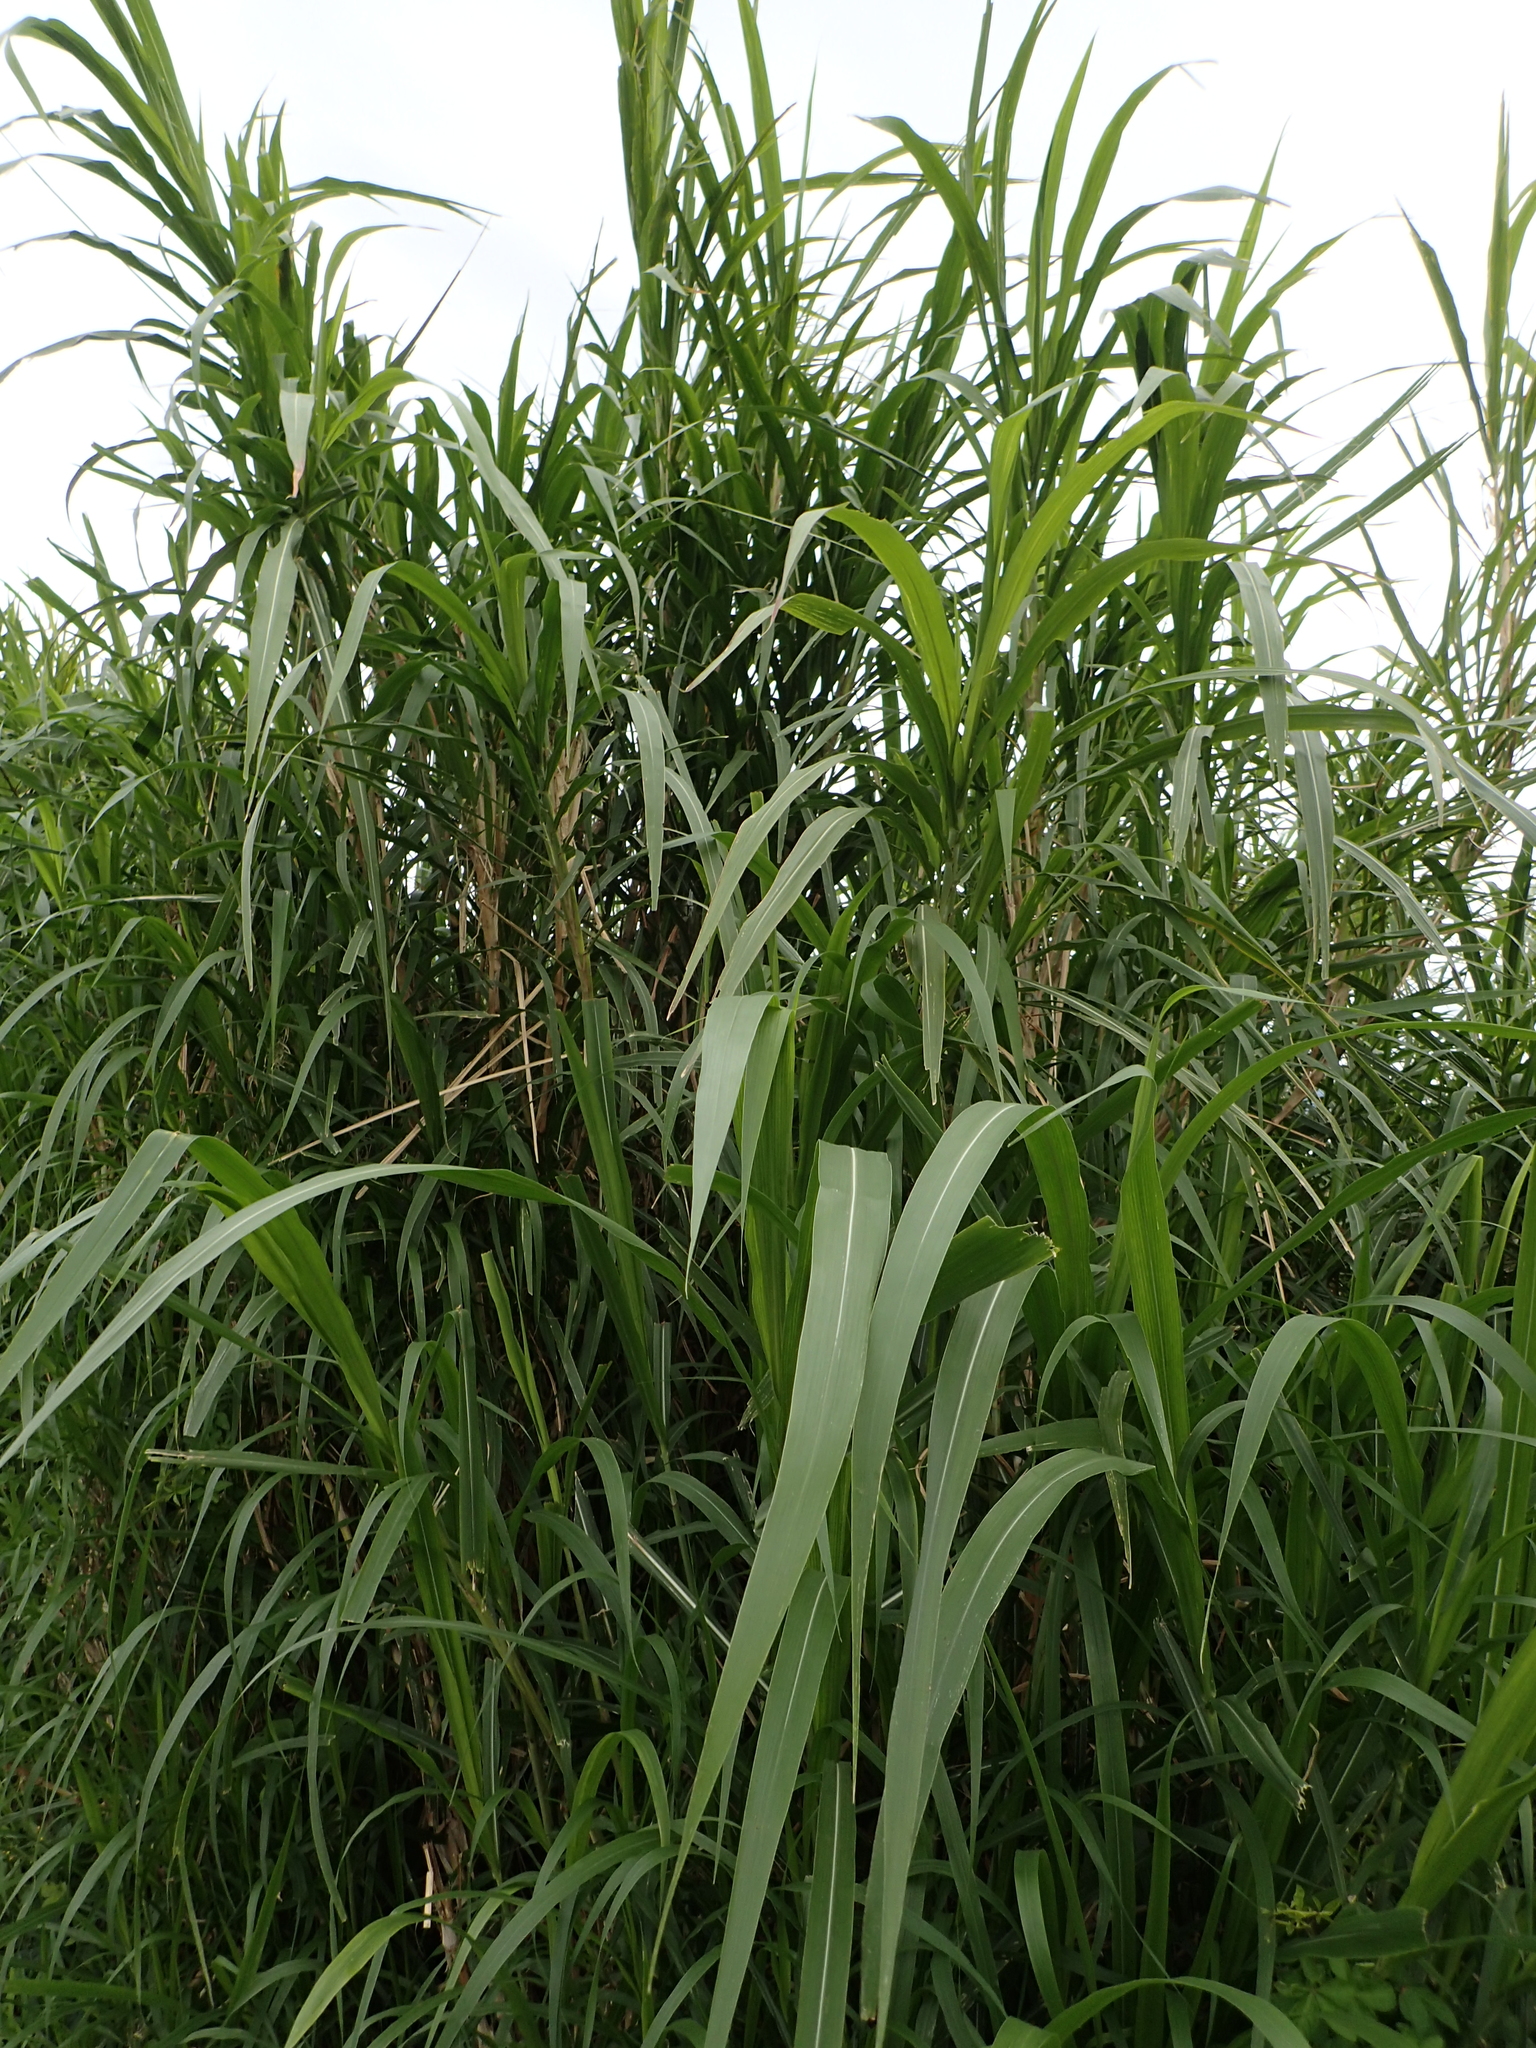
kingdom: Plantae
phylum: Tracheophyta
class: Liliopsida
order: Poales
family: Poaceae
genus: Cenchrus
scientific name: Cenchrus purpureus
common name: Elephant grass
